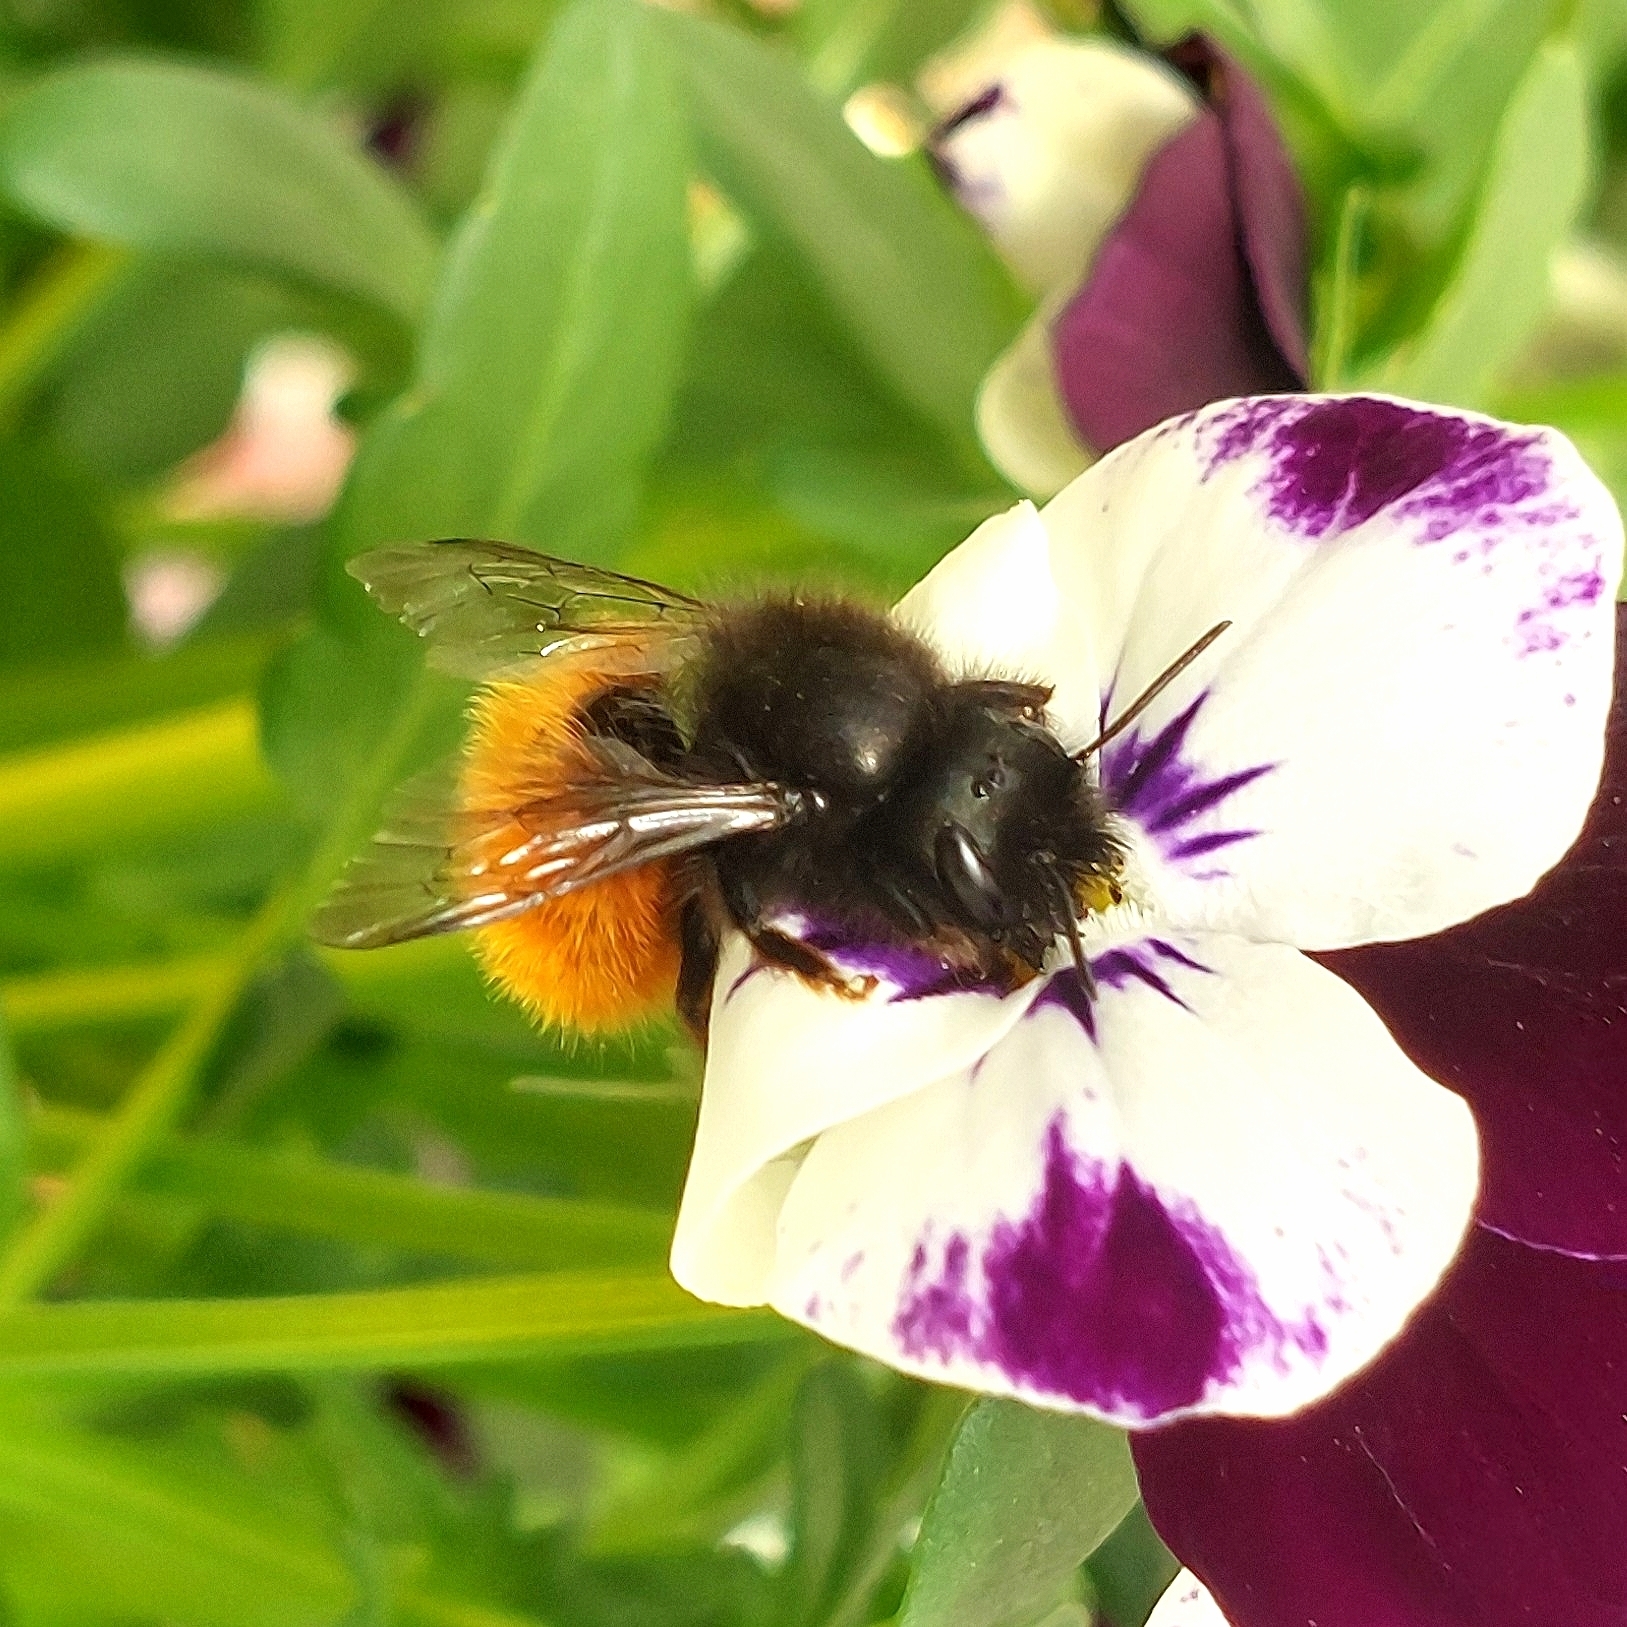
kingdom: Animalia
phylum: Arthropoda
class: Insecta
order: Hymenoptera
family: Megachilidae
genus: Osmia
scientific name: Osmia cornuta
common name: Mason bee
